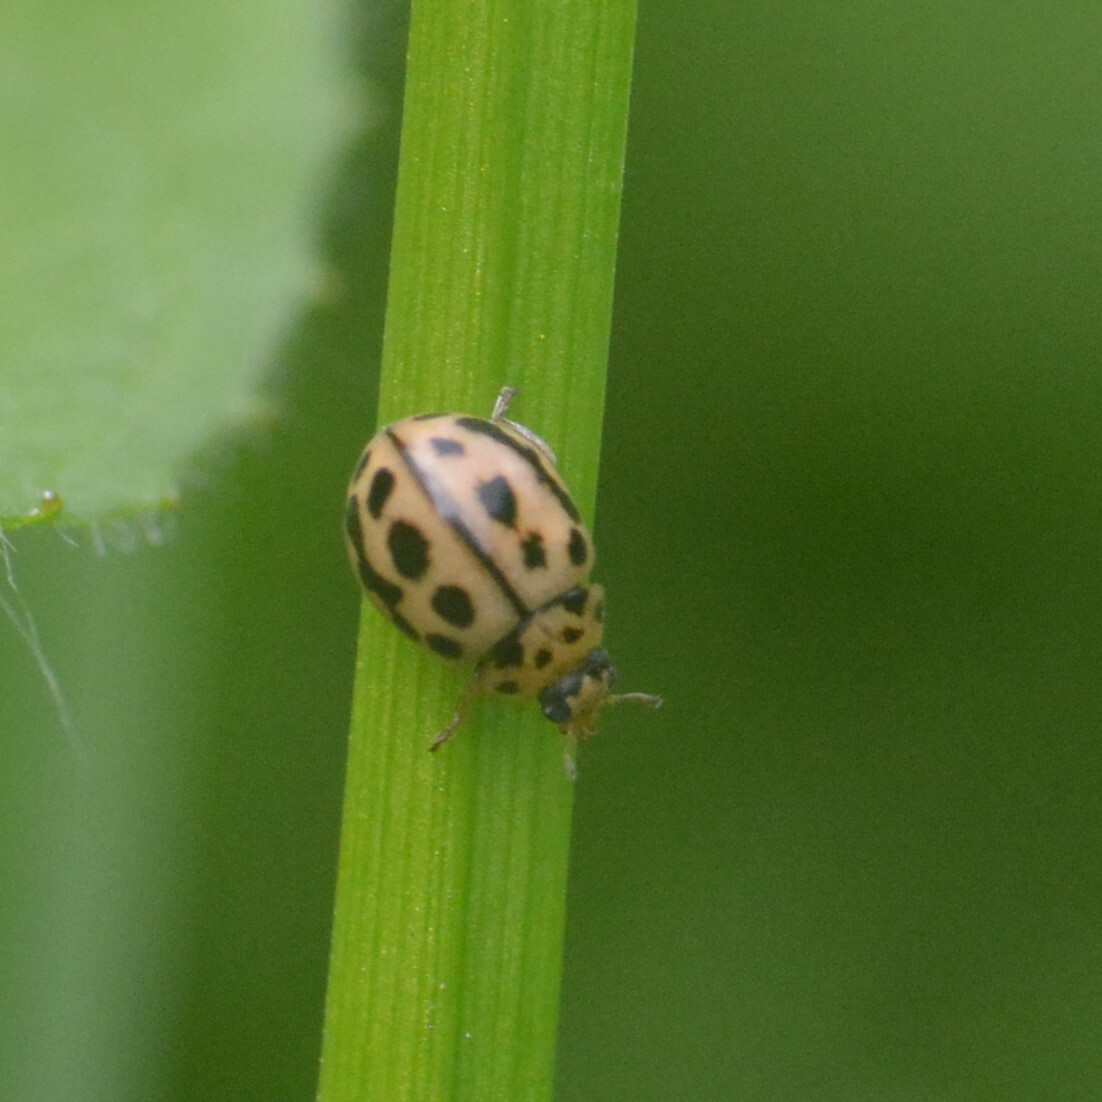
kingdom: Animalia
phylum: Arthropoda
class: Insecta
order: Coleoptera
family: Coccinellidae
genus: Tytthaspis
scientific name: Tytthaspis sedecimpunctata
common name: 16-spot ladybird
